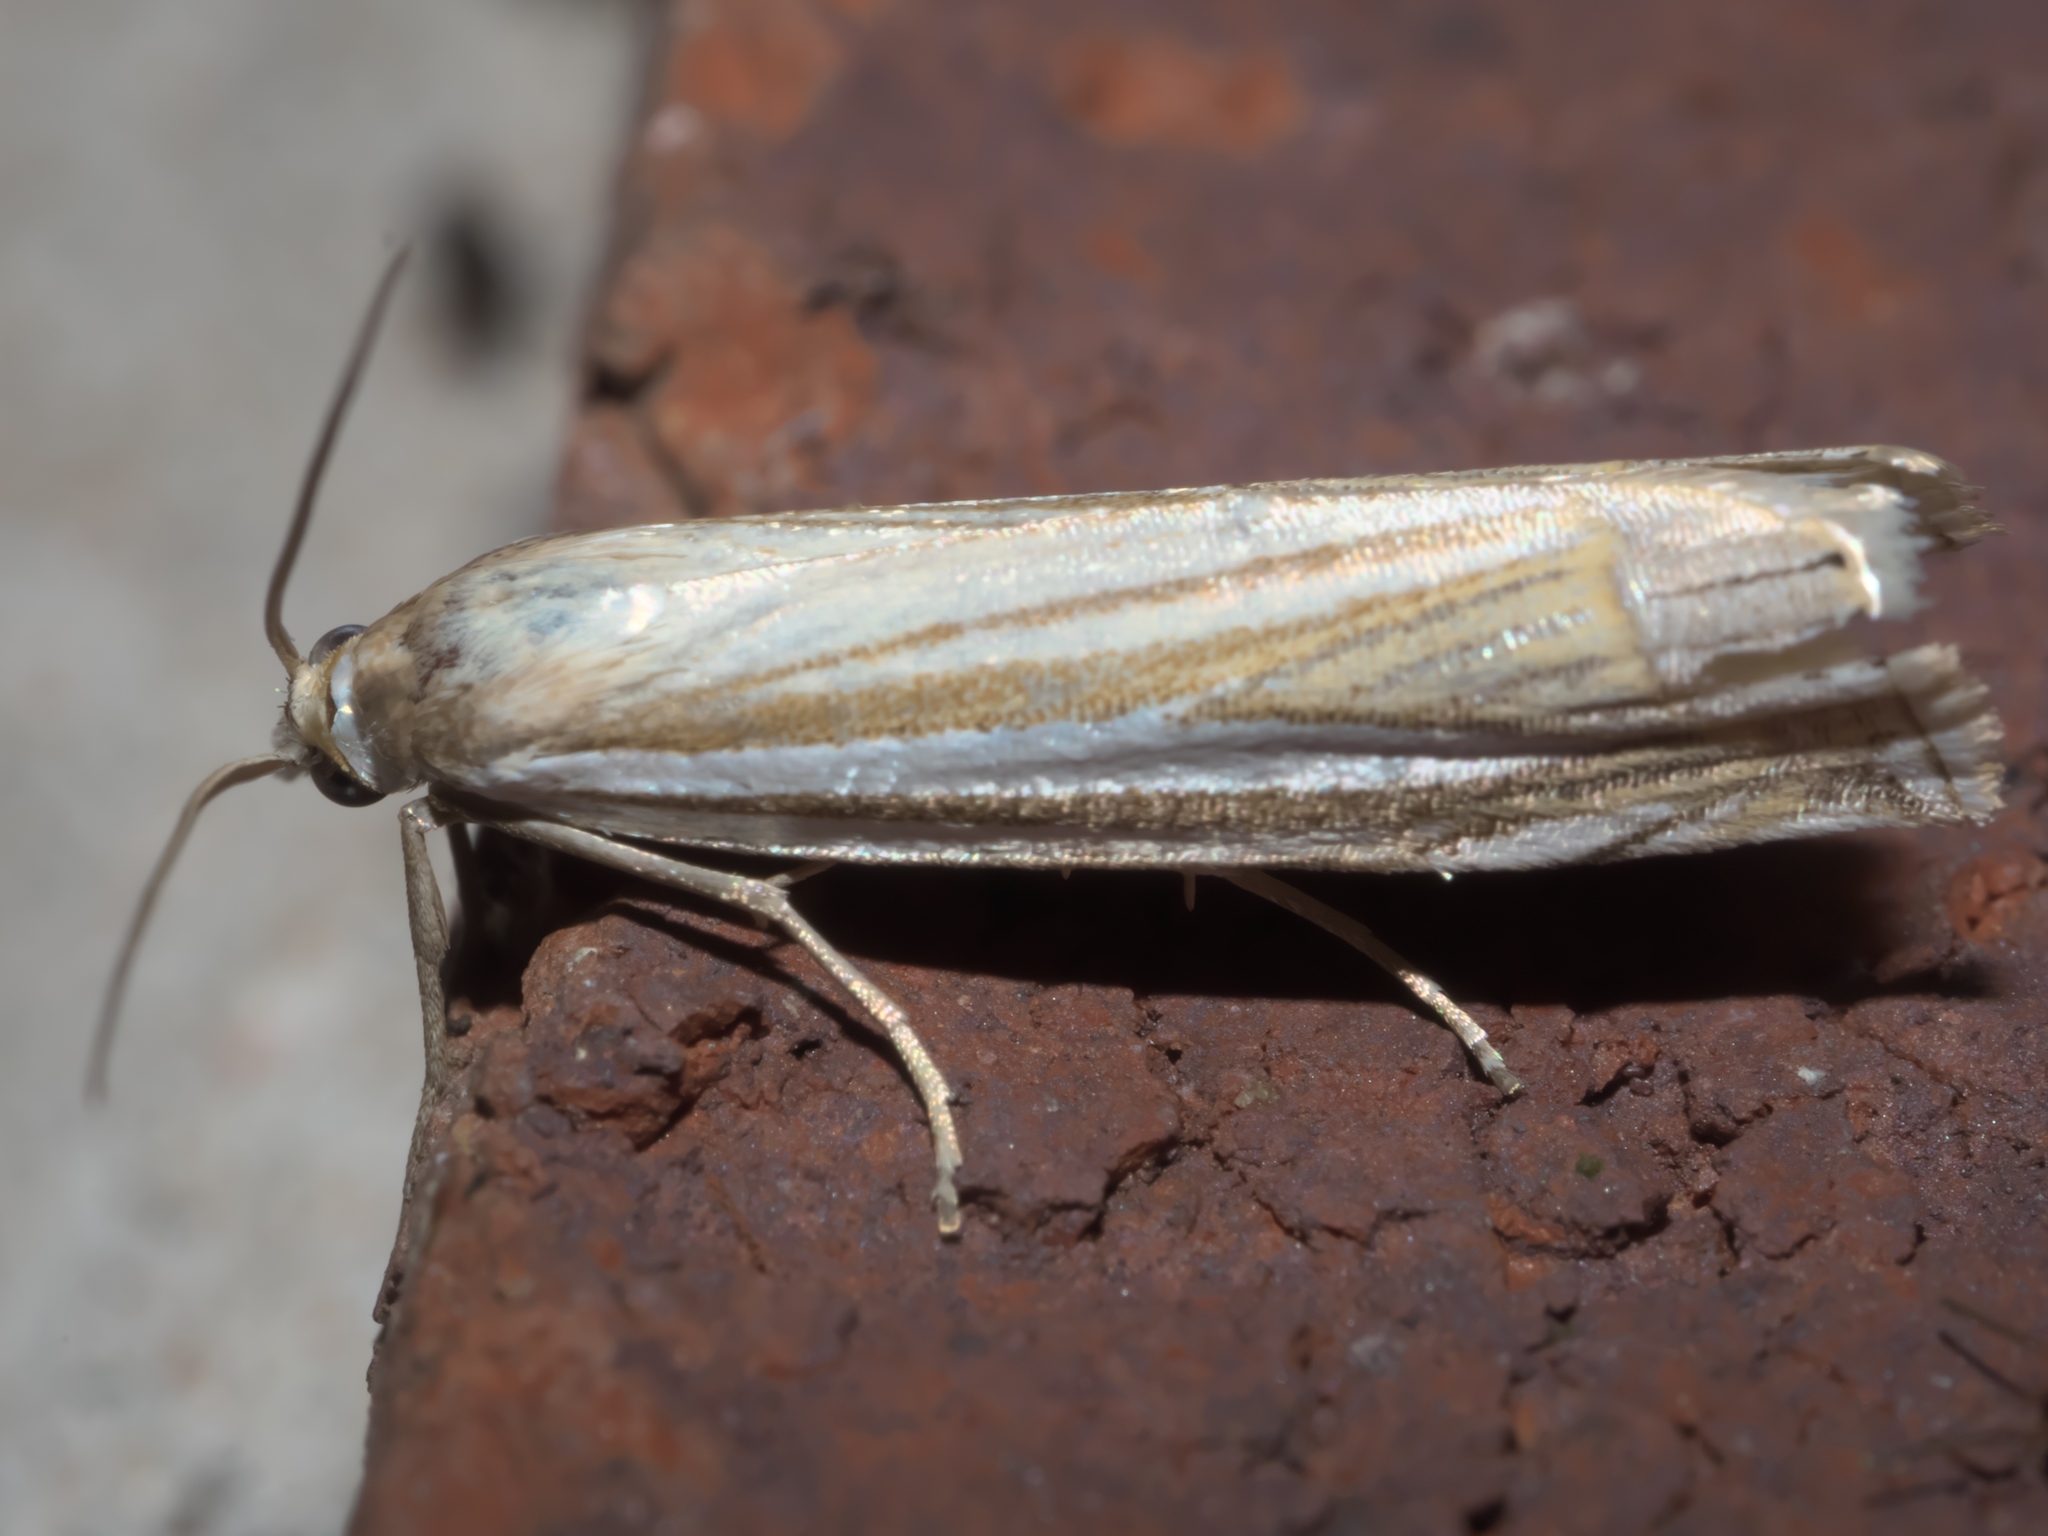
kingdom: Animalia
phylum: Arthropoda
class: Insecta
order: Lepidoptera
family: Crambidae
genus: Crambus
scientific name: Crambus laqueatellus
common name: Eastern grass-veneer
